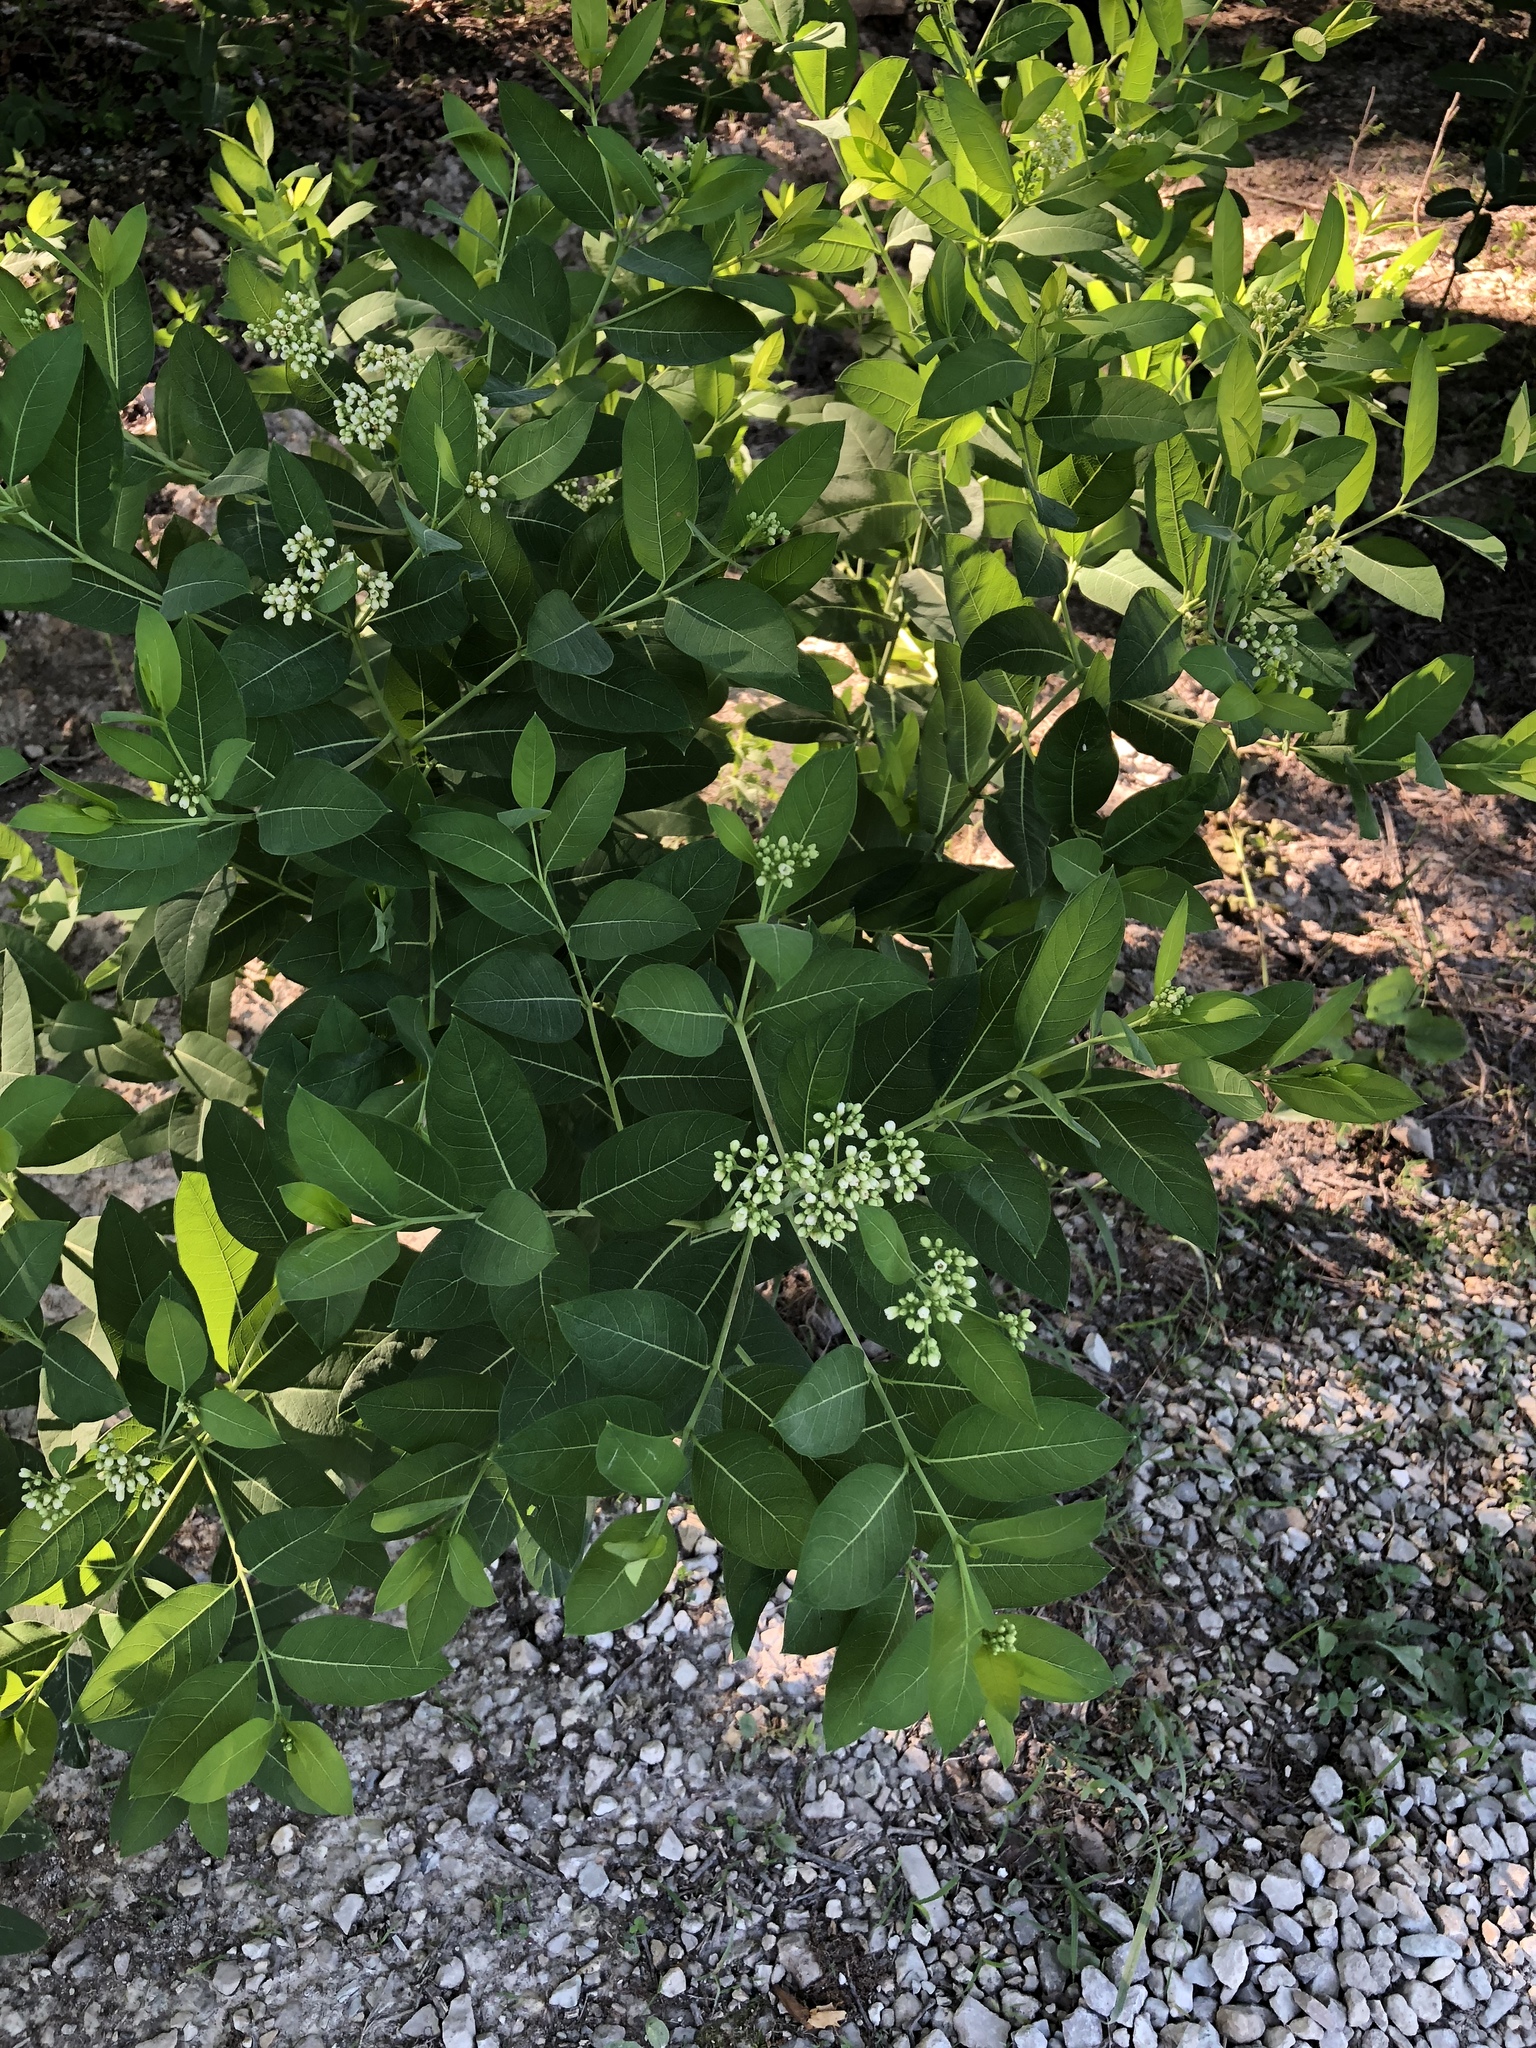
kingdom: Plantae
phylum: Tracheophyta
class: Magnoliopsida
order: Gentianales
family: Apocynaceae
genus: Apocynum
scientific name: Apocynum cannabinum
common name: Hemp dogbane
